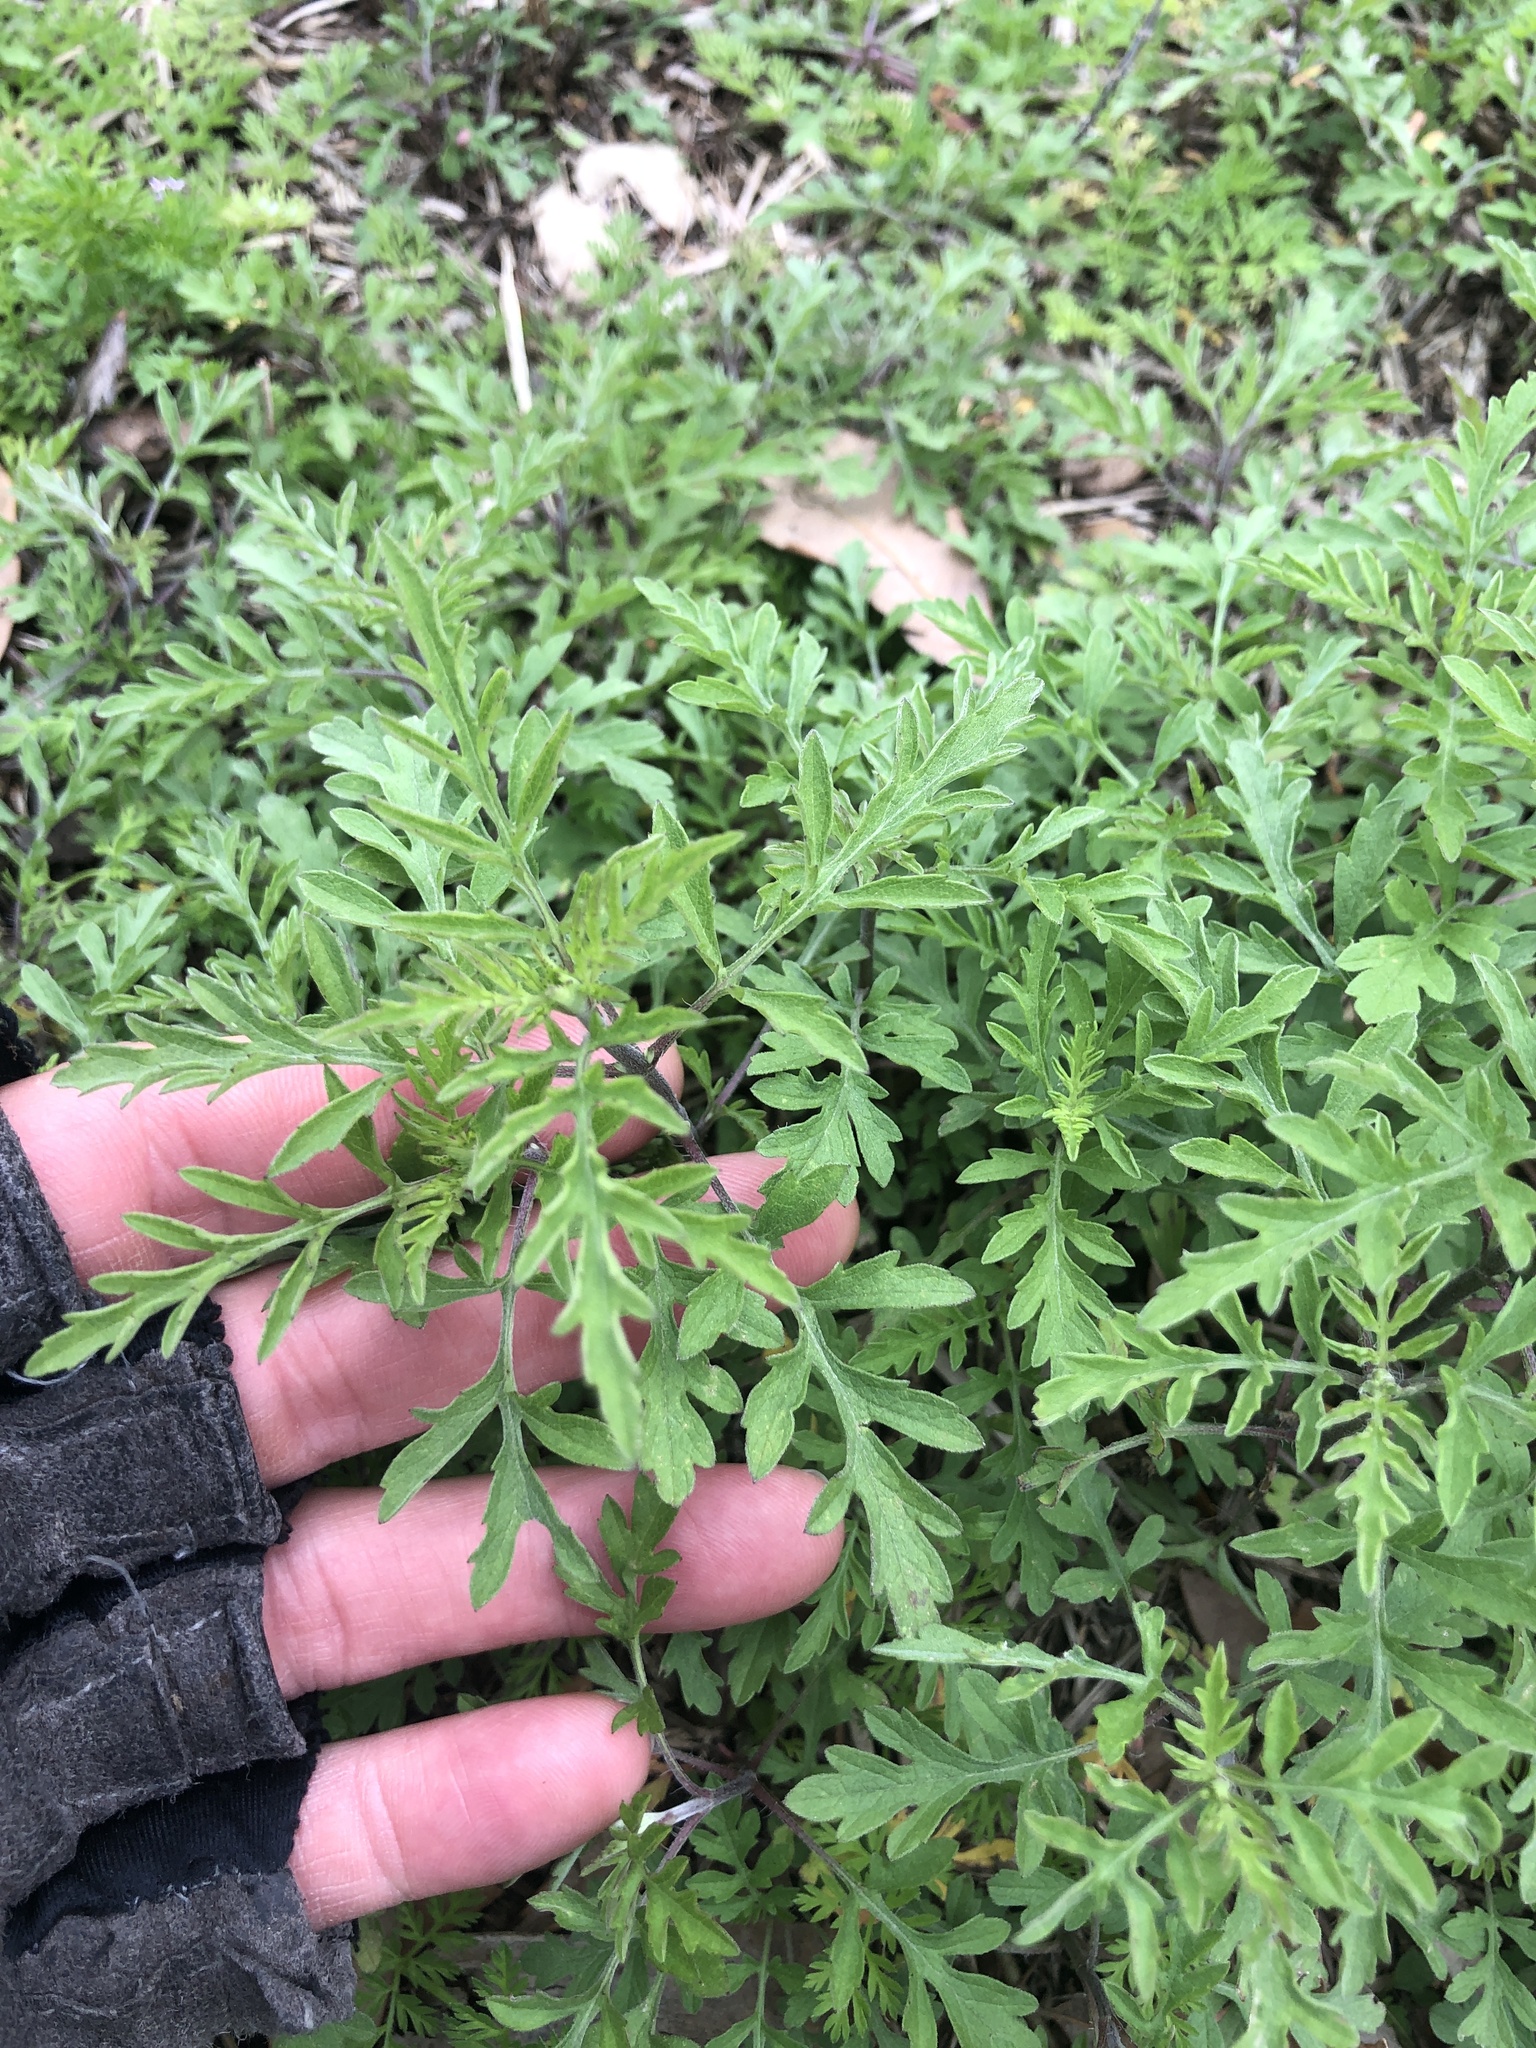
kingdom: Plantae
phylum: Tracheophyta
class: Magnoliopsida
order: Asterales
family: Asteraceae
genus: Ambrosia
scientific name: Ambrosia psilostachya
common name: Perennial ragweed
